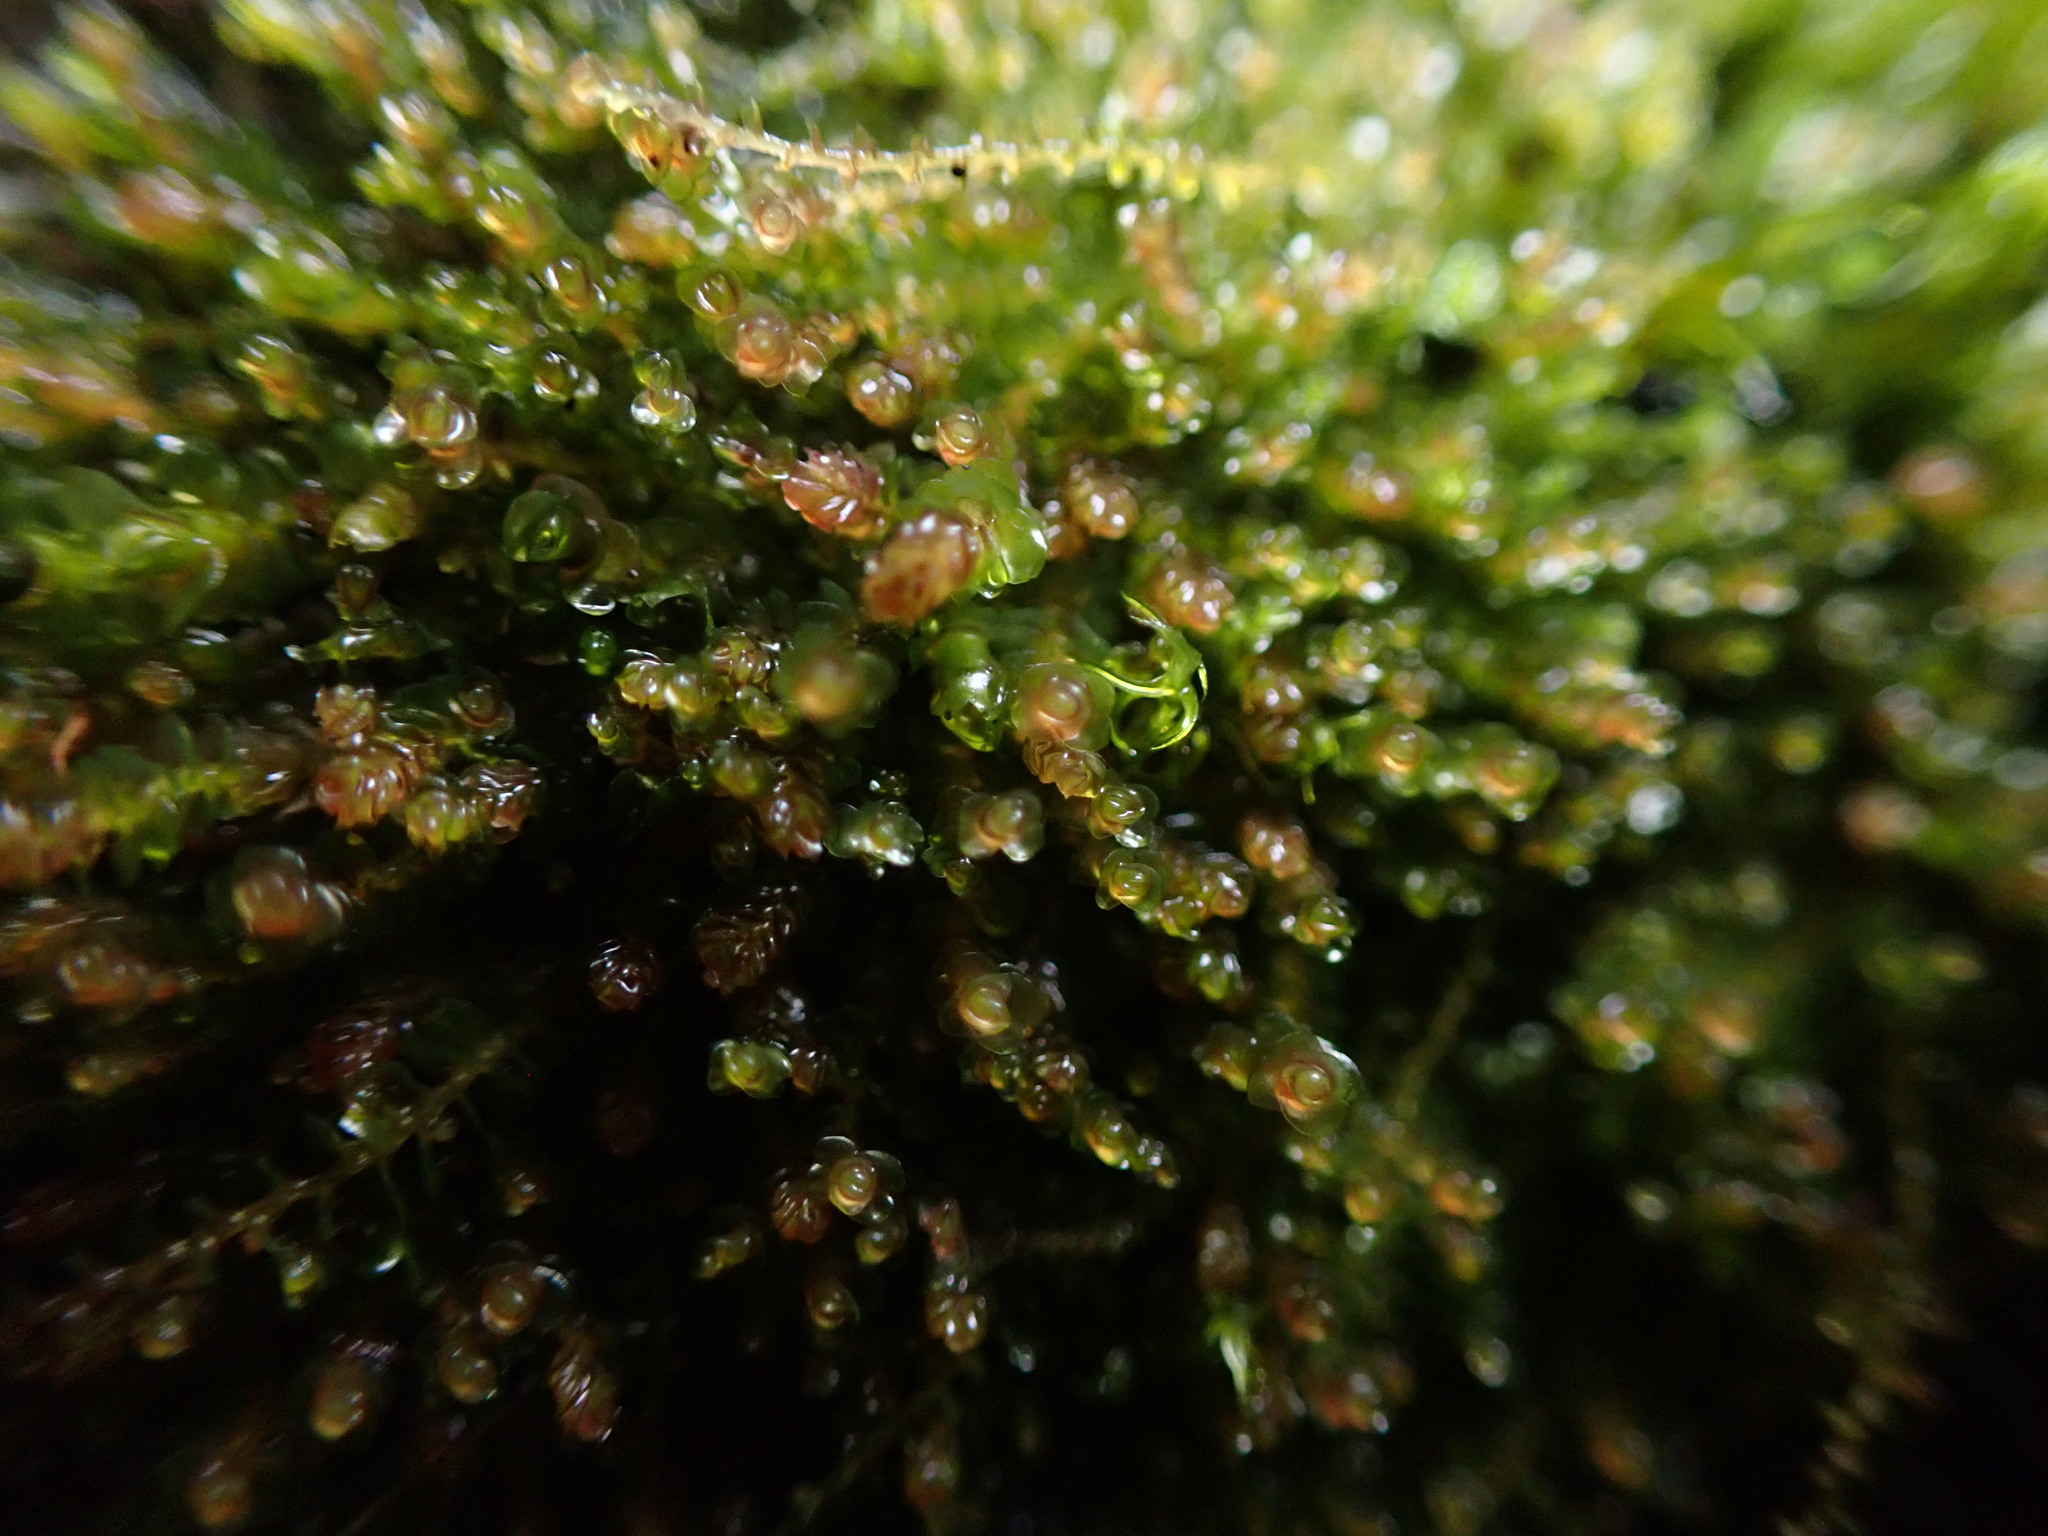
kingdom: Plantae
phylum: Marchantiophyta
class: Jungermanniopsida
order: Jungermanniales
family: Gymnomitriaceae
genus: Marsupella
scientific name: Marsupella emarginata
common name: Notched rustwort
